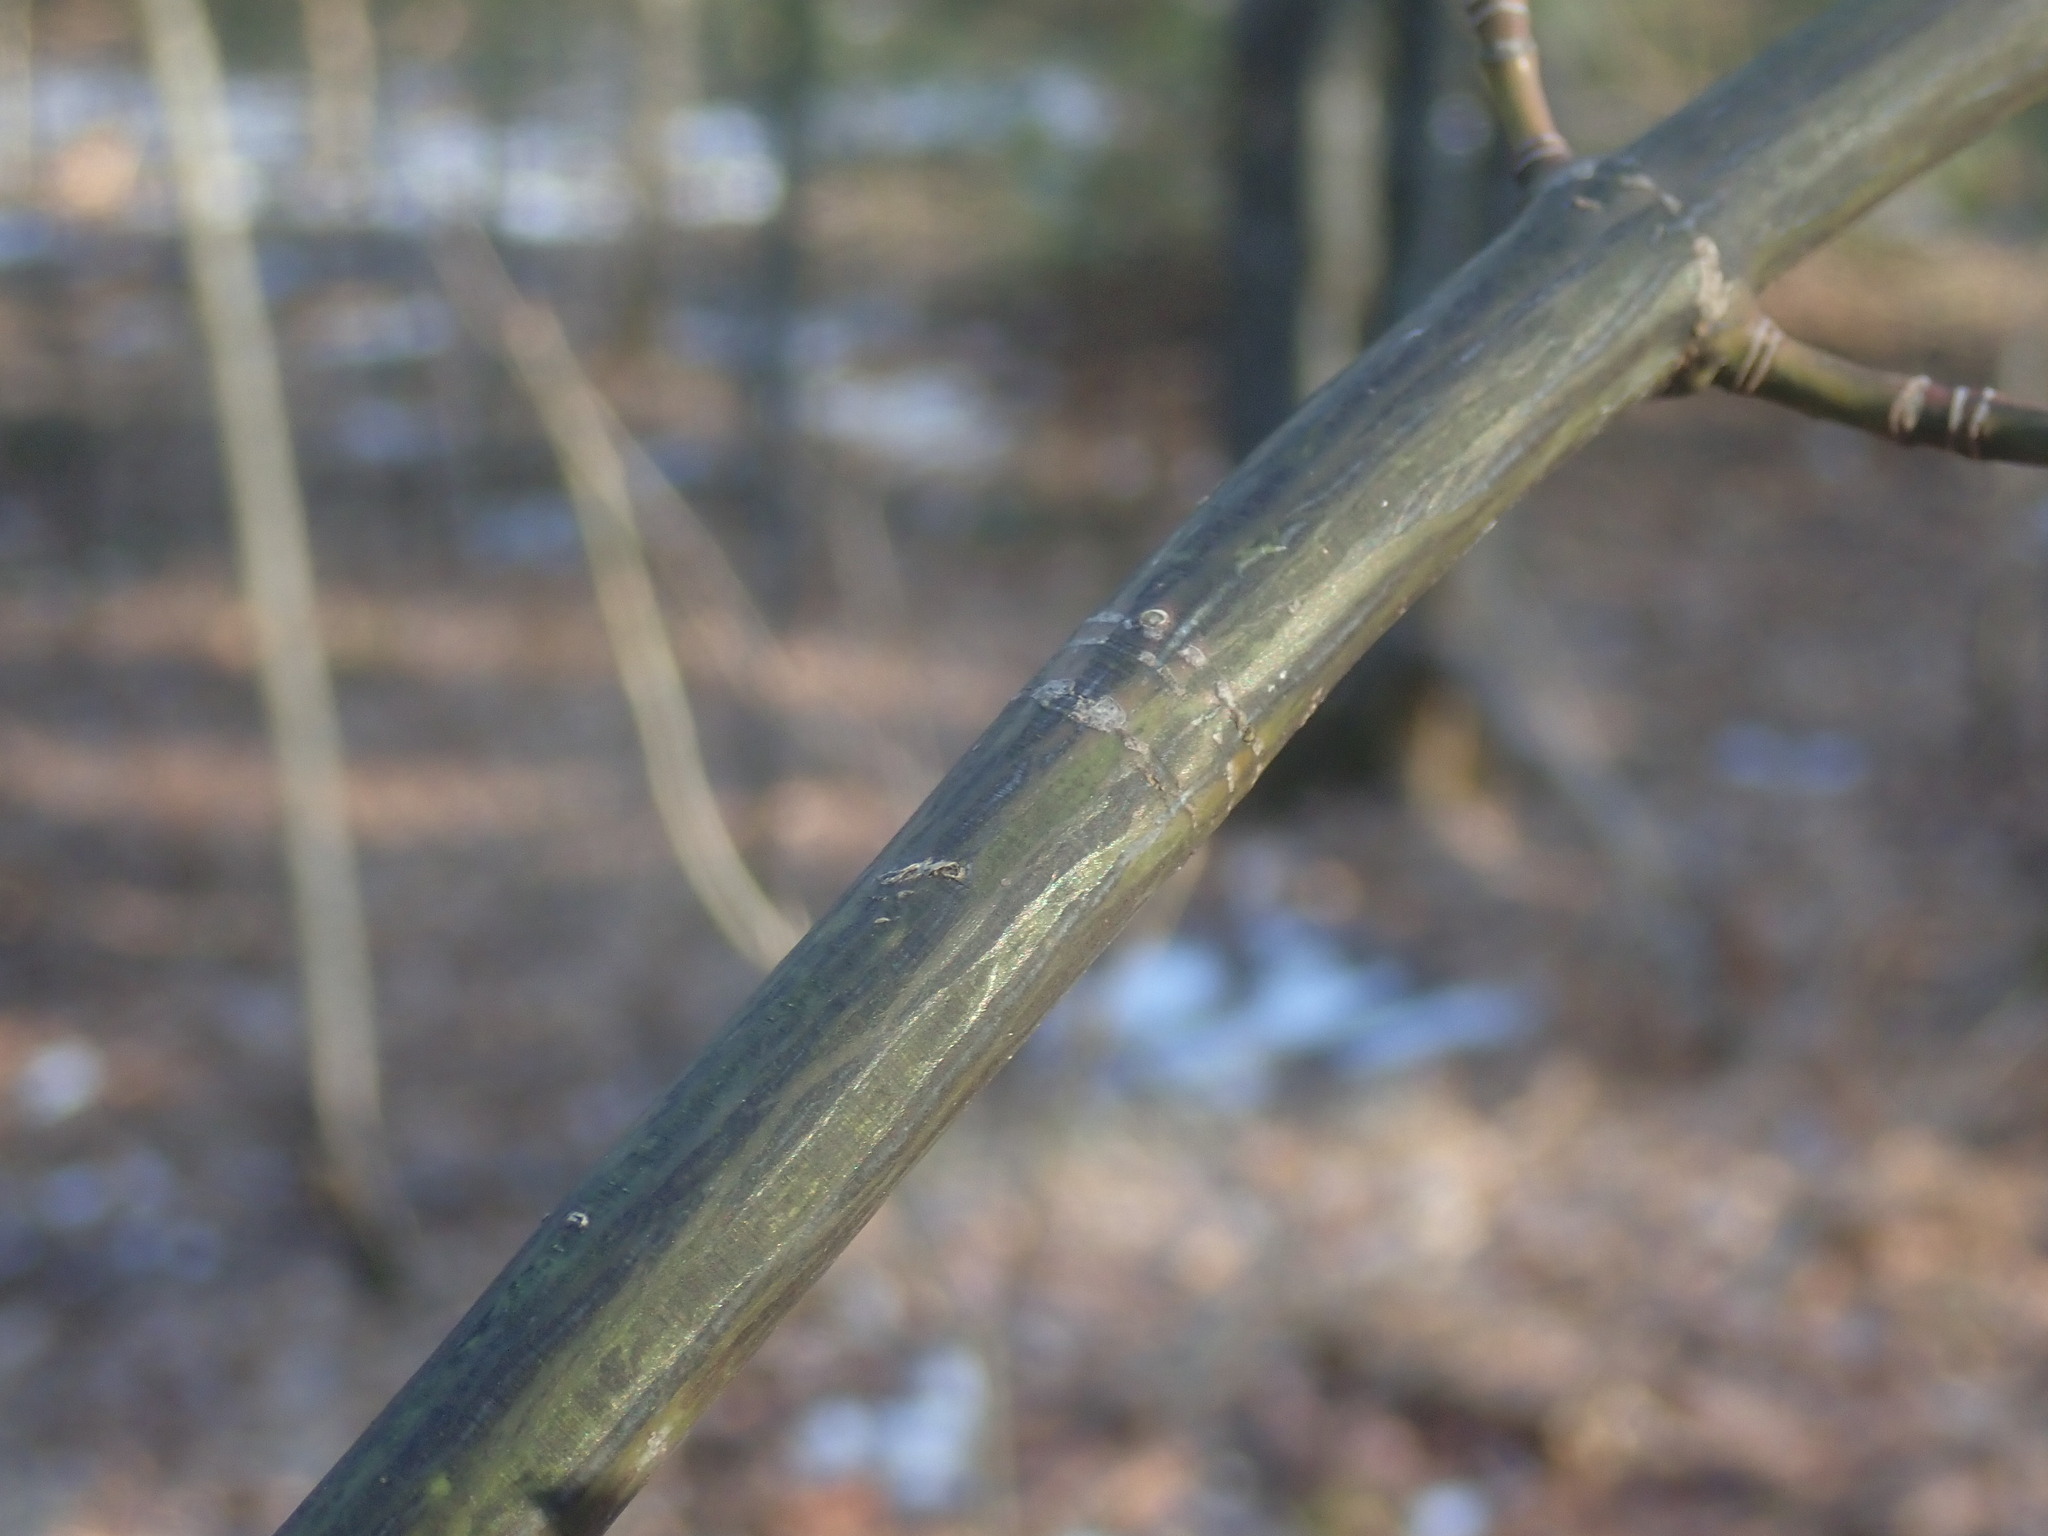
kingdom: Plantae
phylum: Tracheophyta
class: Magnoliopsida
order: Sapindales
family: Sapindaceae
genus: Acer
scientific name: Acer pensylvanicum
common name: Moosewood
